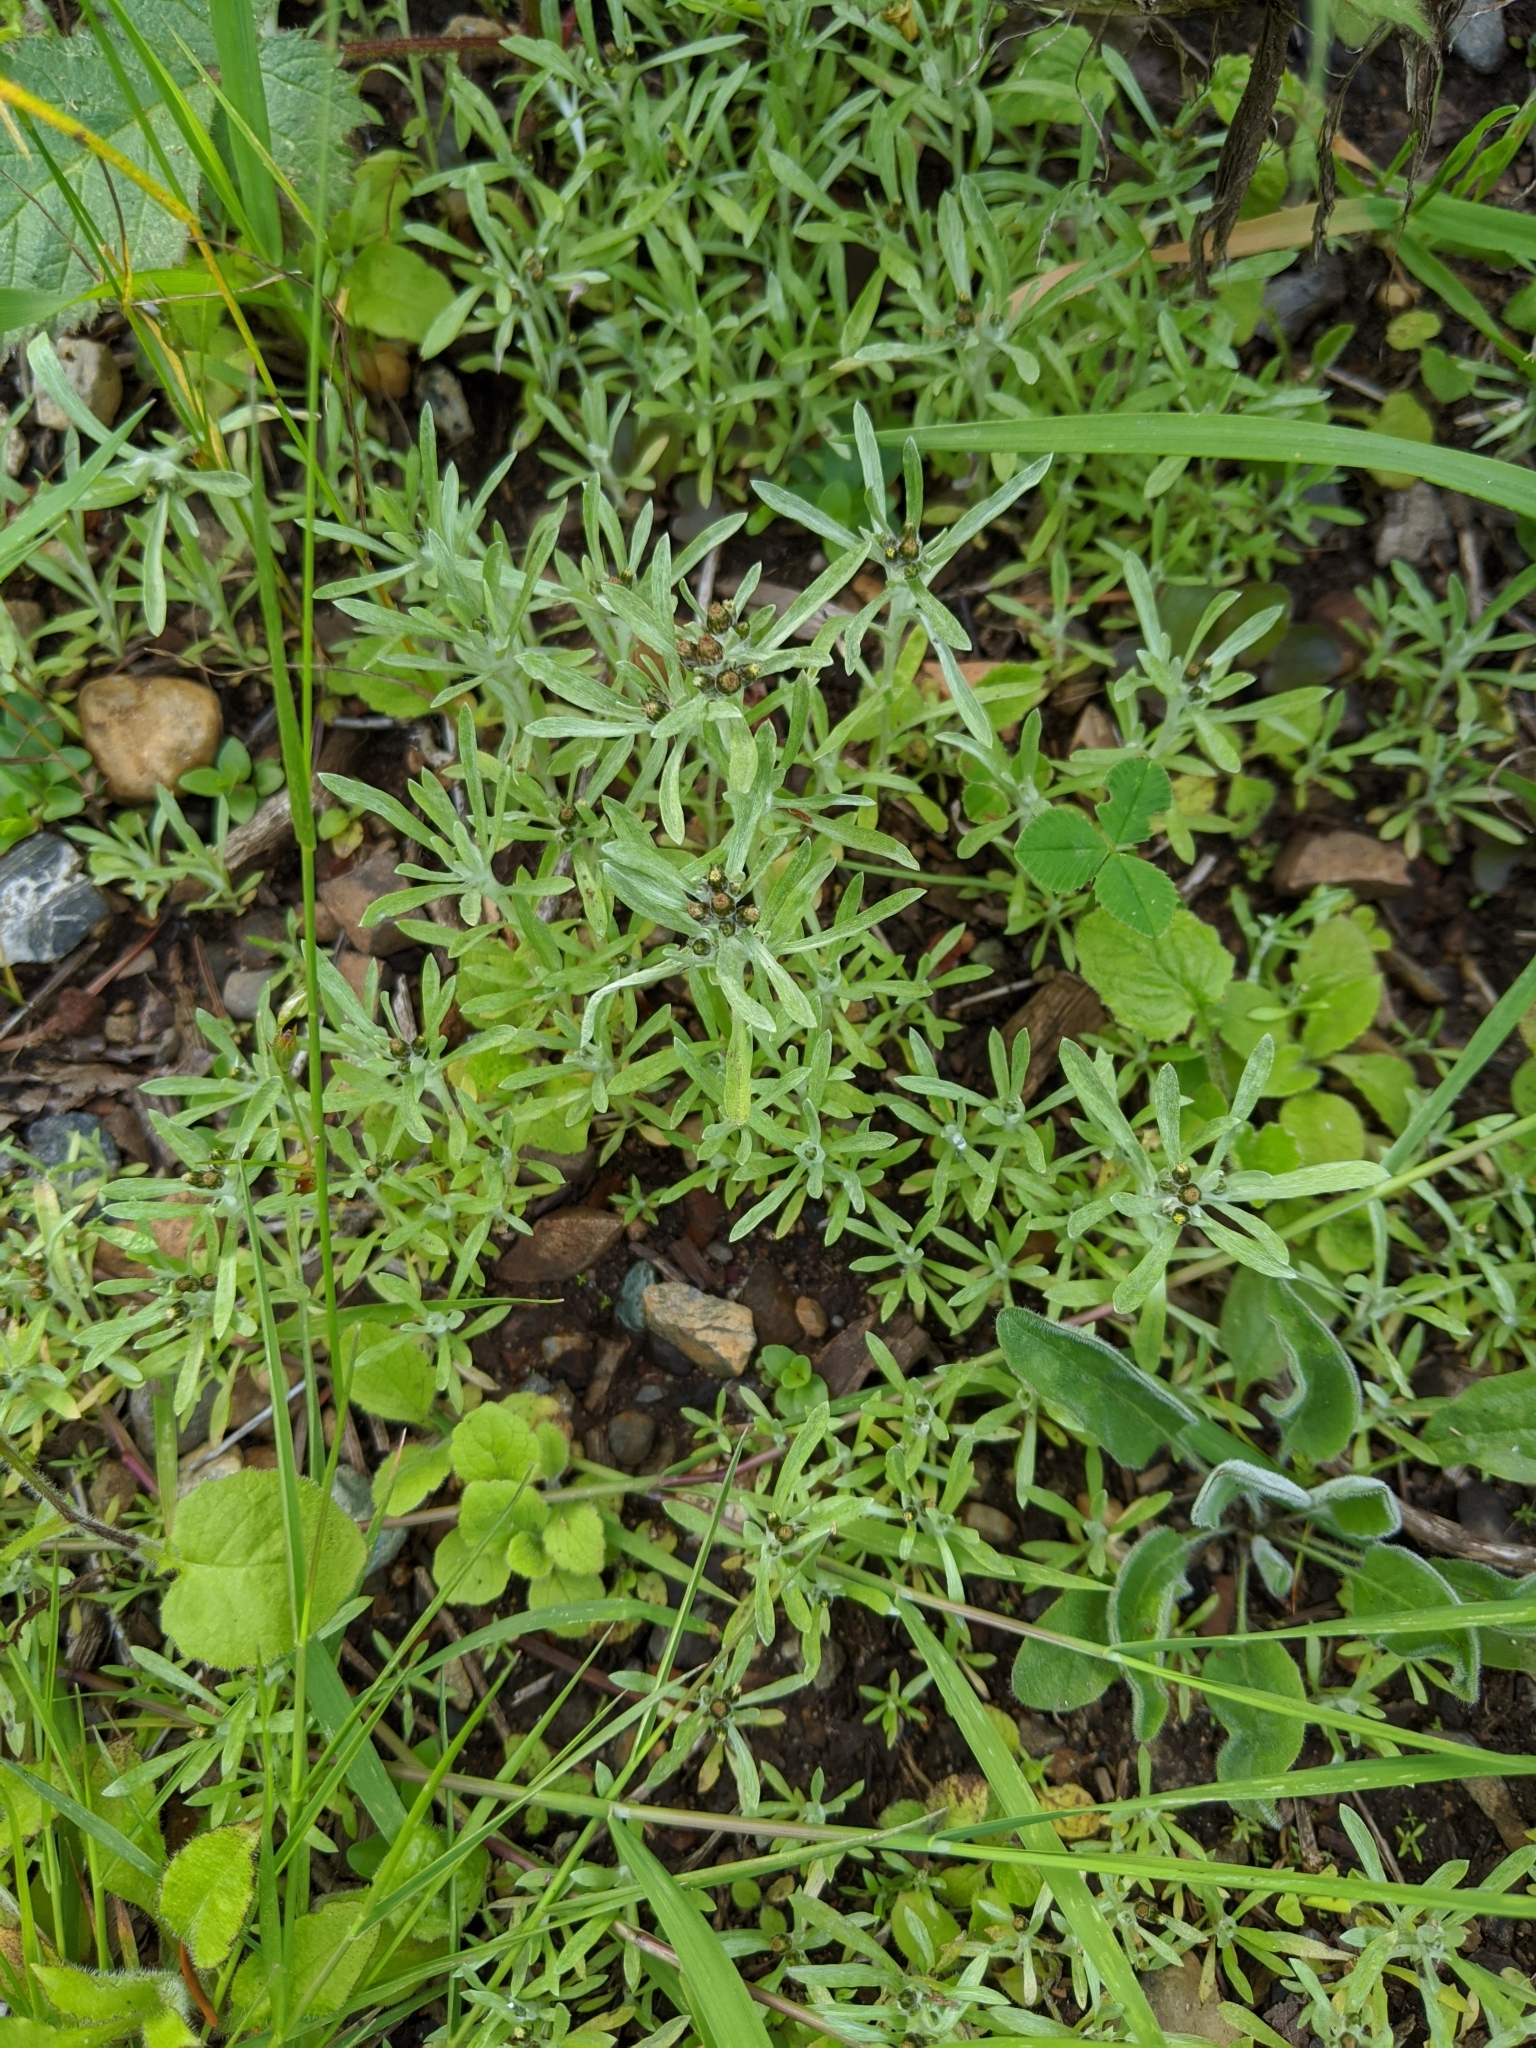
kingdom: Plantae
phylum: Tracheophyta
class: Magnoliopsida
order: Asterales
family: Asteraceae
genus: Gnaphalium
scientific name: Gnaphalium uliginosum
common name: Marsh cudweed
